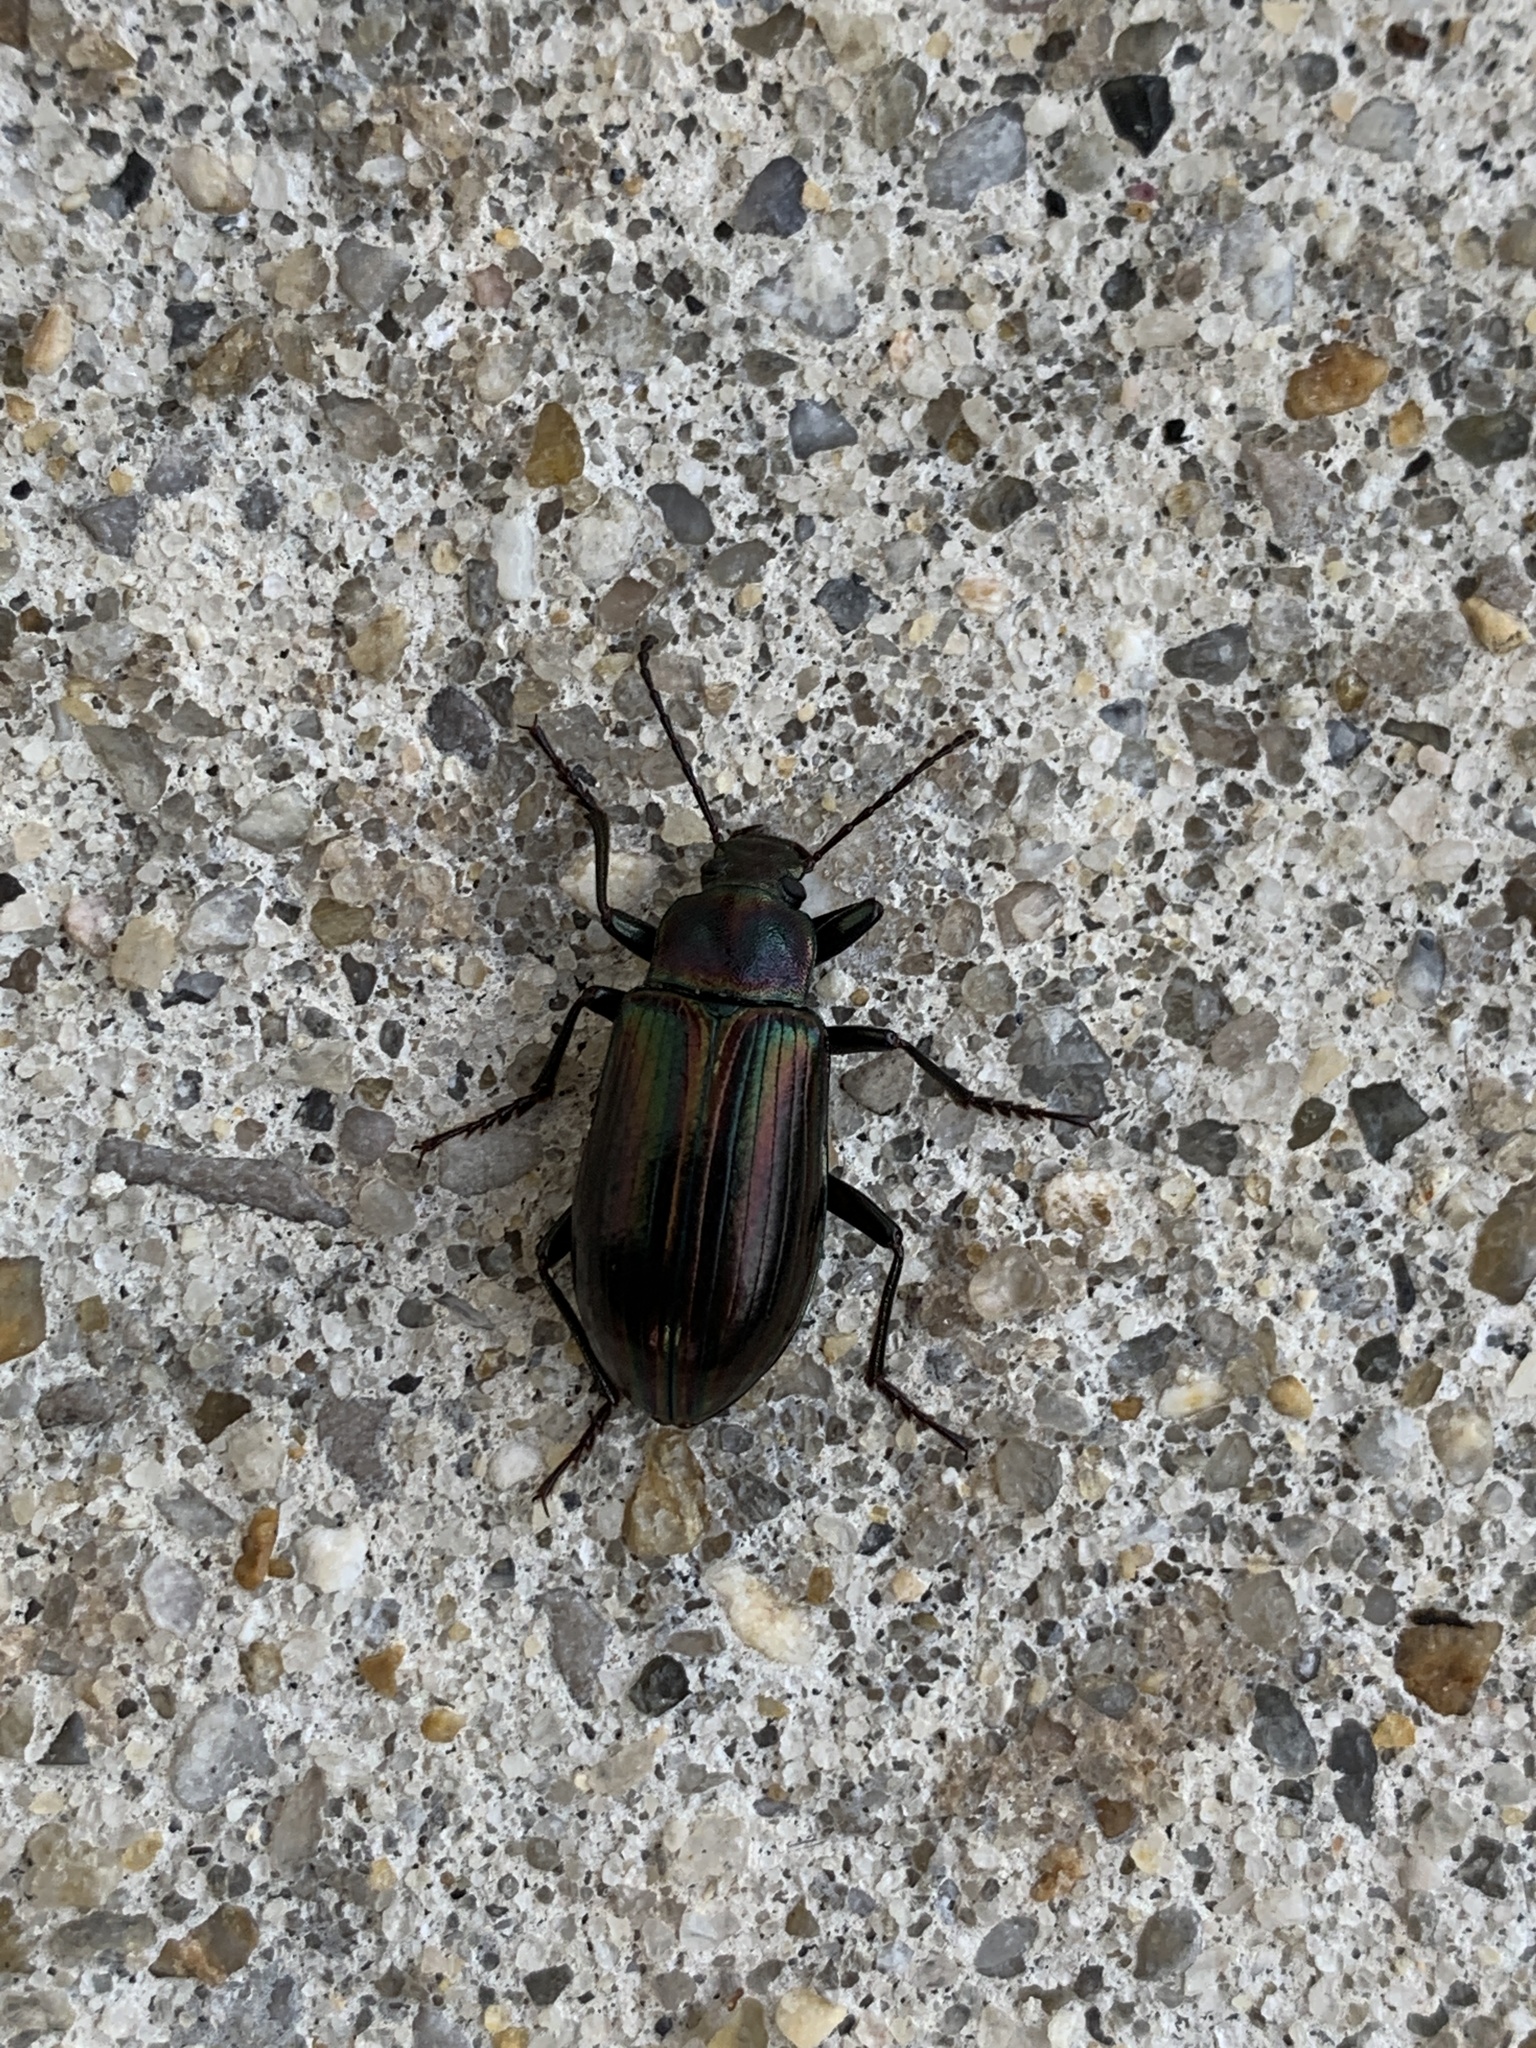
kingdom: Animalia
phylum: Arthropoda
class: Insecta
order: Coleoptera
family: Tenebrionidae
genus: Tarpela
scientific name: Tarpela micans
